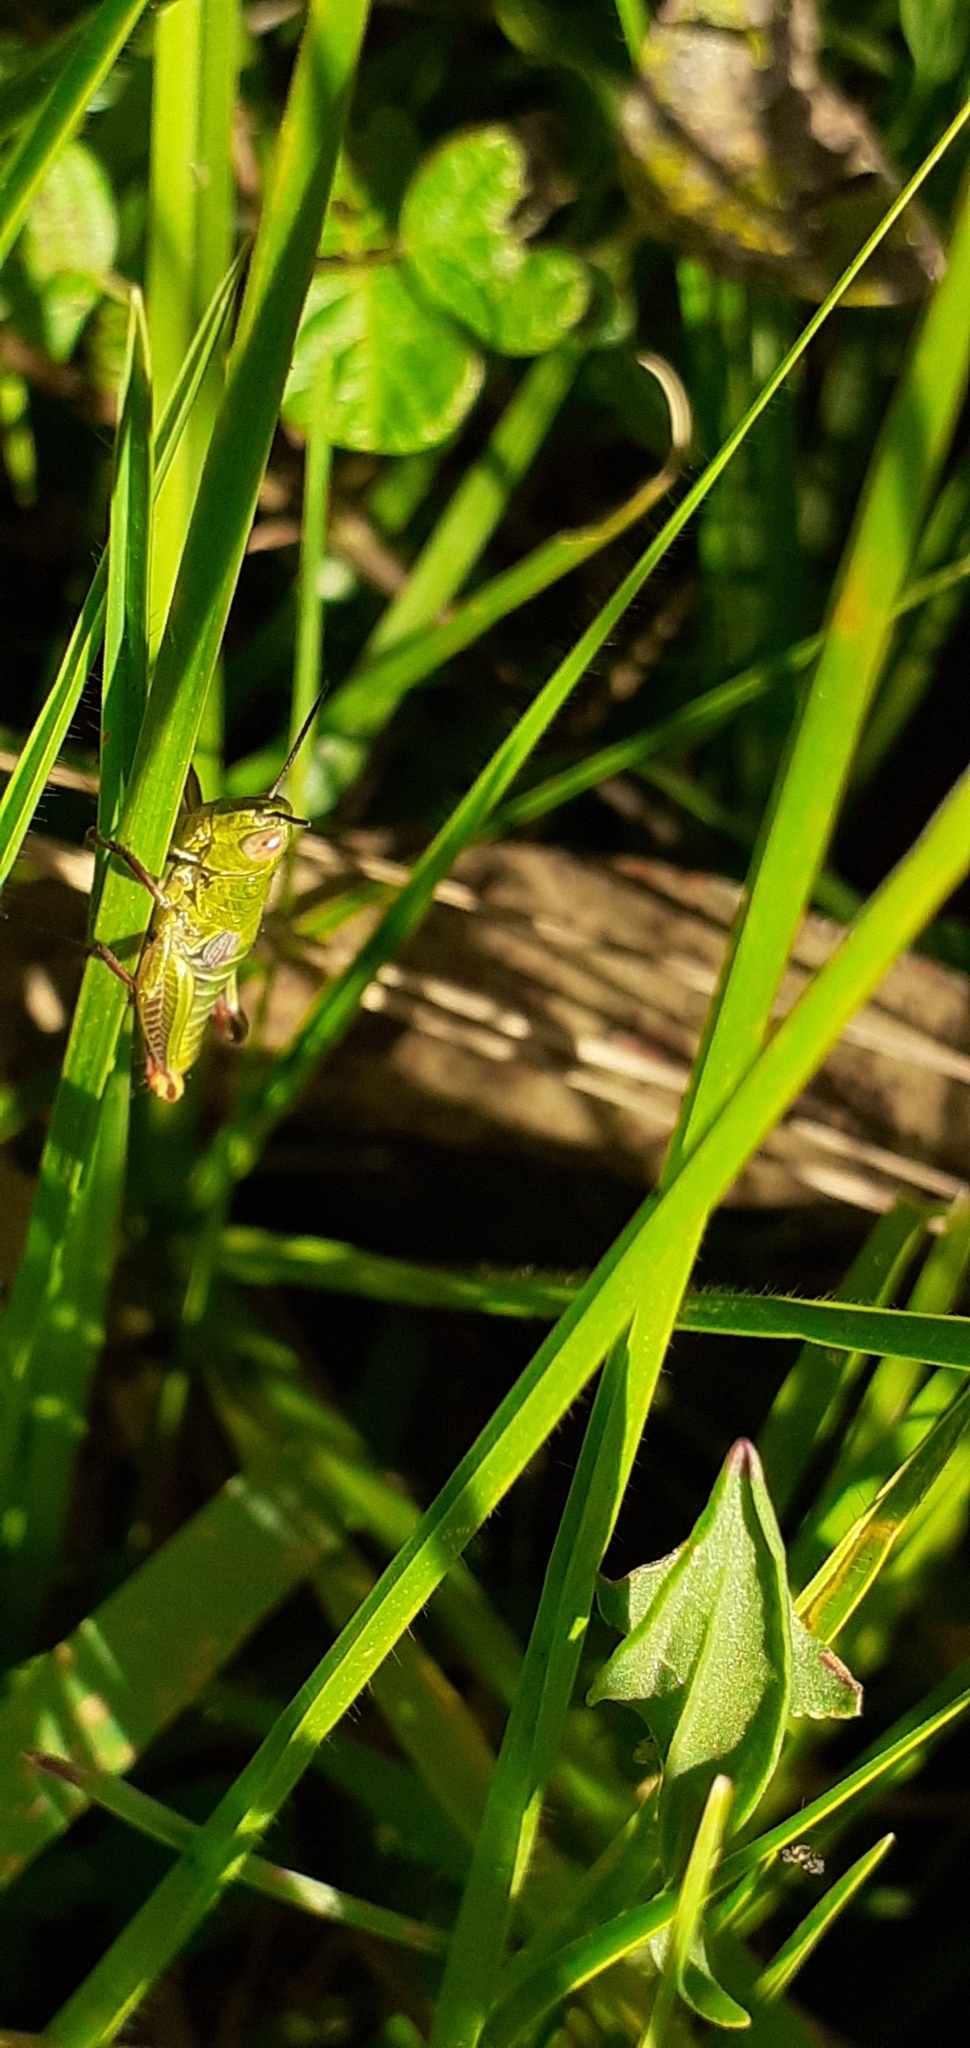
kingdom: Animalia
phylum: Arthropoda
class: Insecta
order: Orthoptera
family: Acrididae
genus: Jivarus
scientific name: Jivarus antisanae
